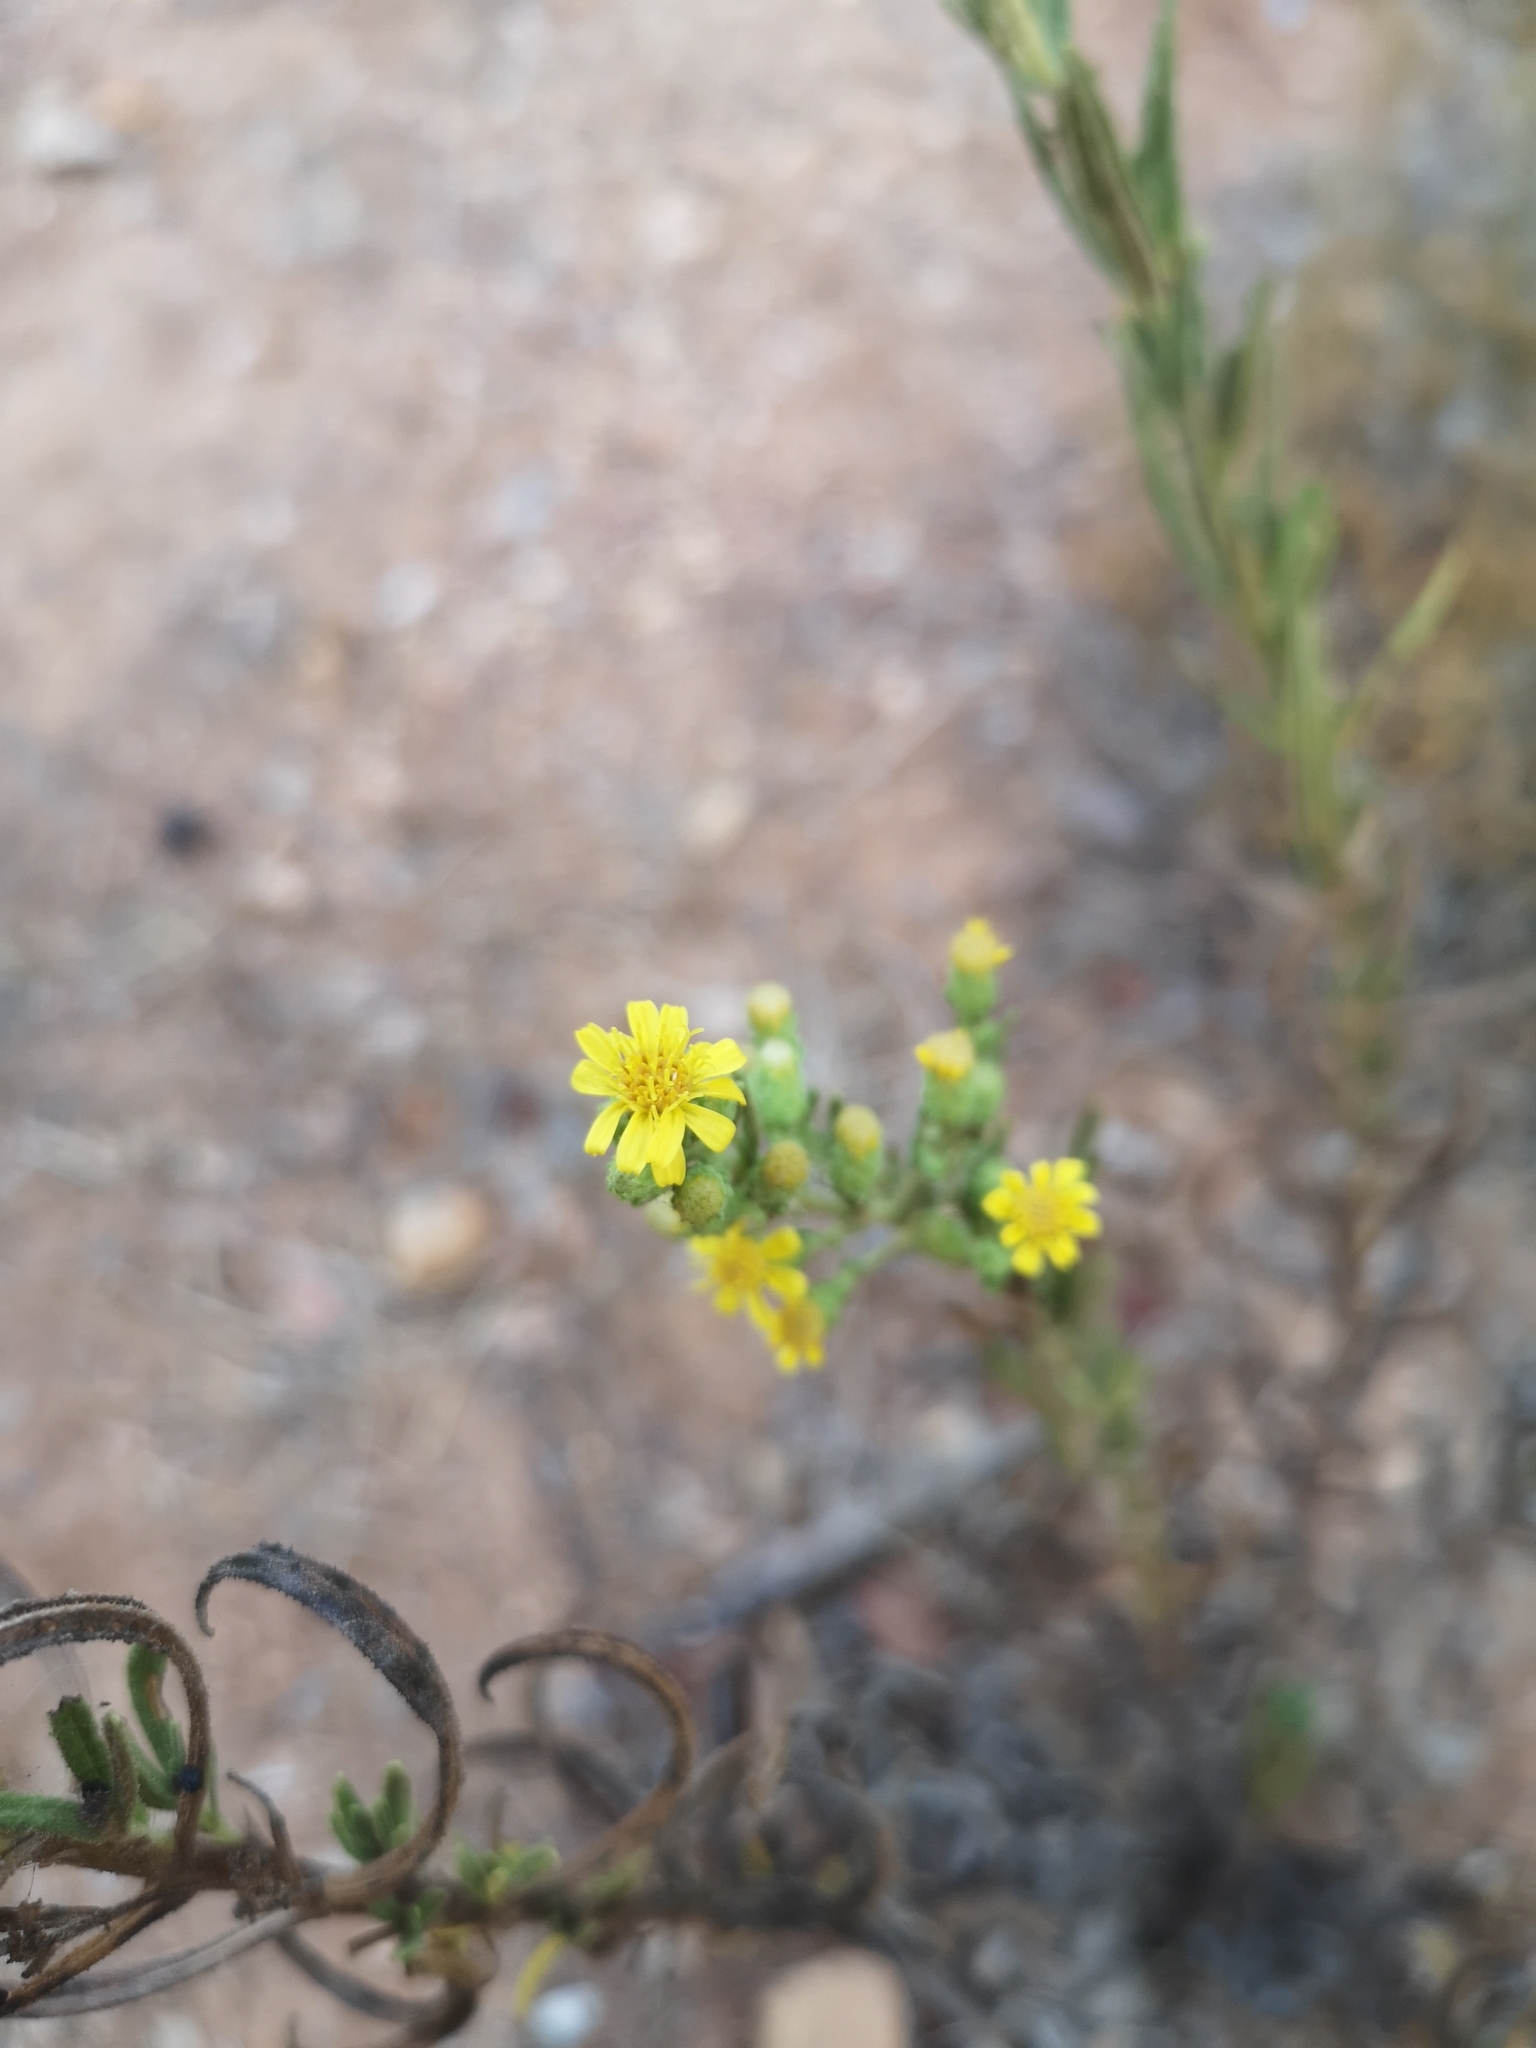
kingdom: Plantae
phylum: Tracheophyta
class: Magnoliopsida
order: Asterales
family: Asteraceae
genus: Dittrichia
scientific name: Dittrichia viscosa
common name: Woody fleabane
